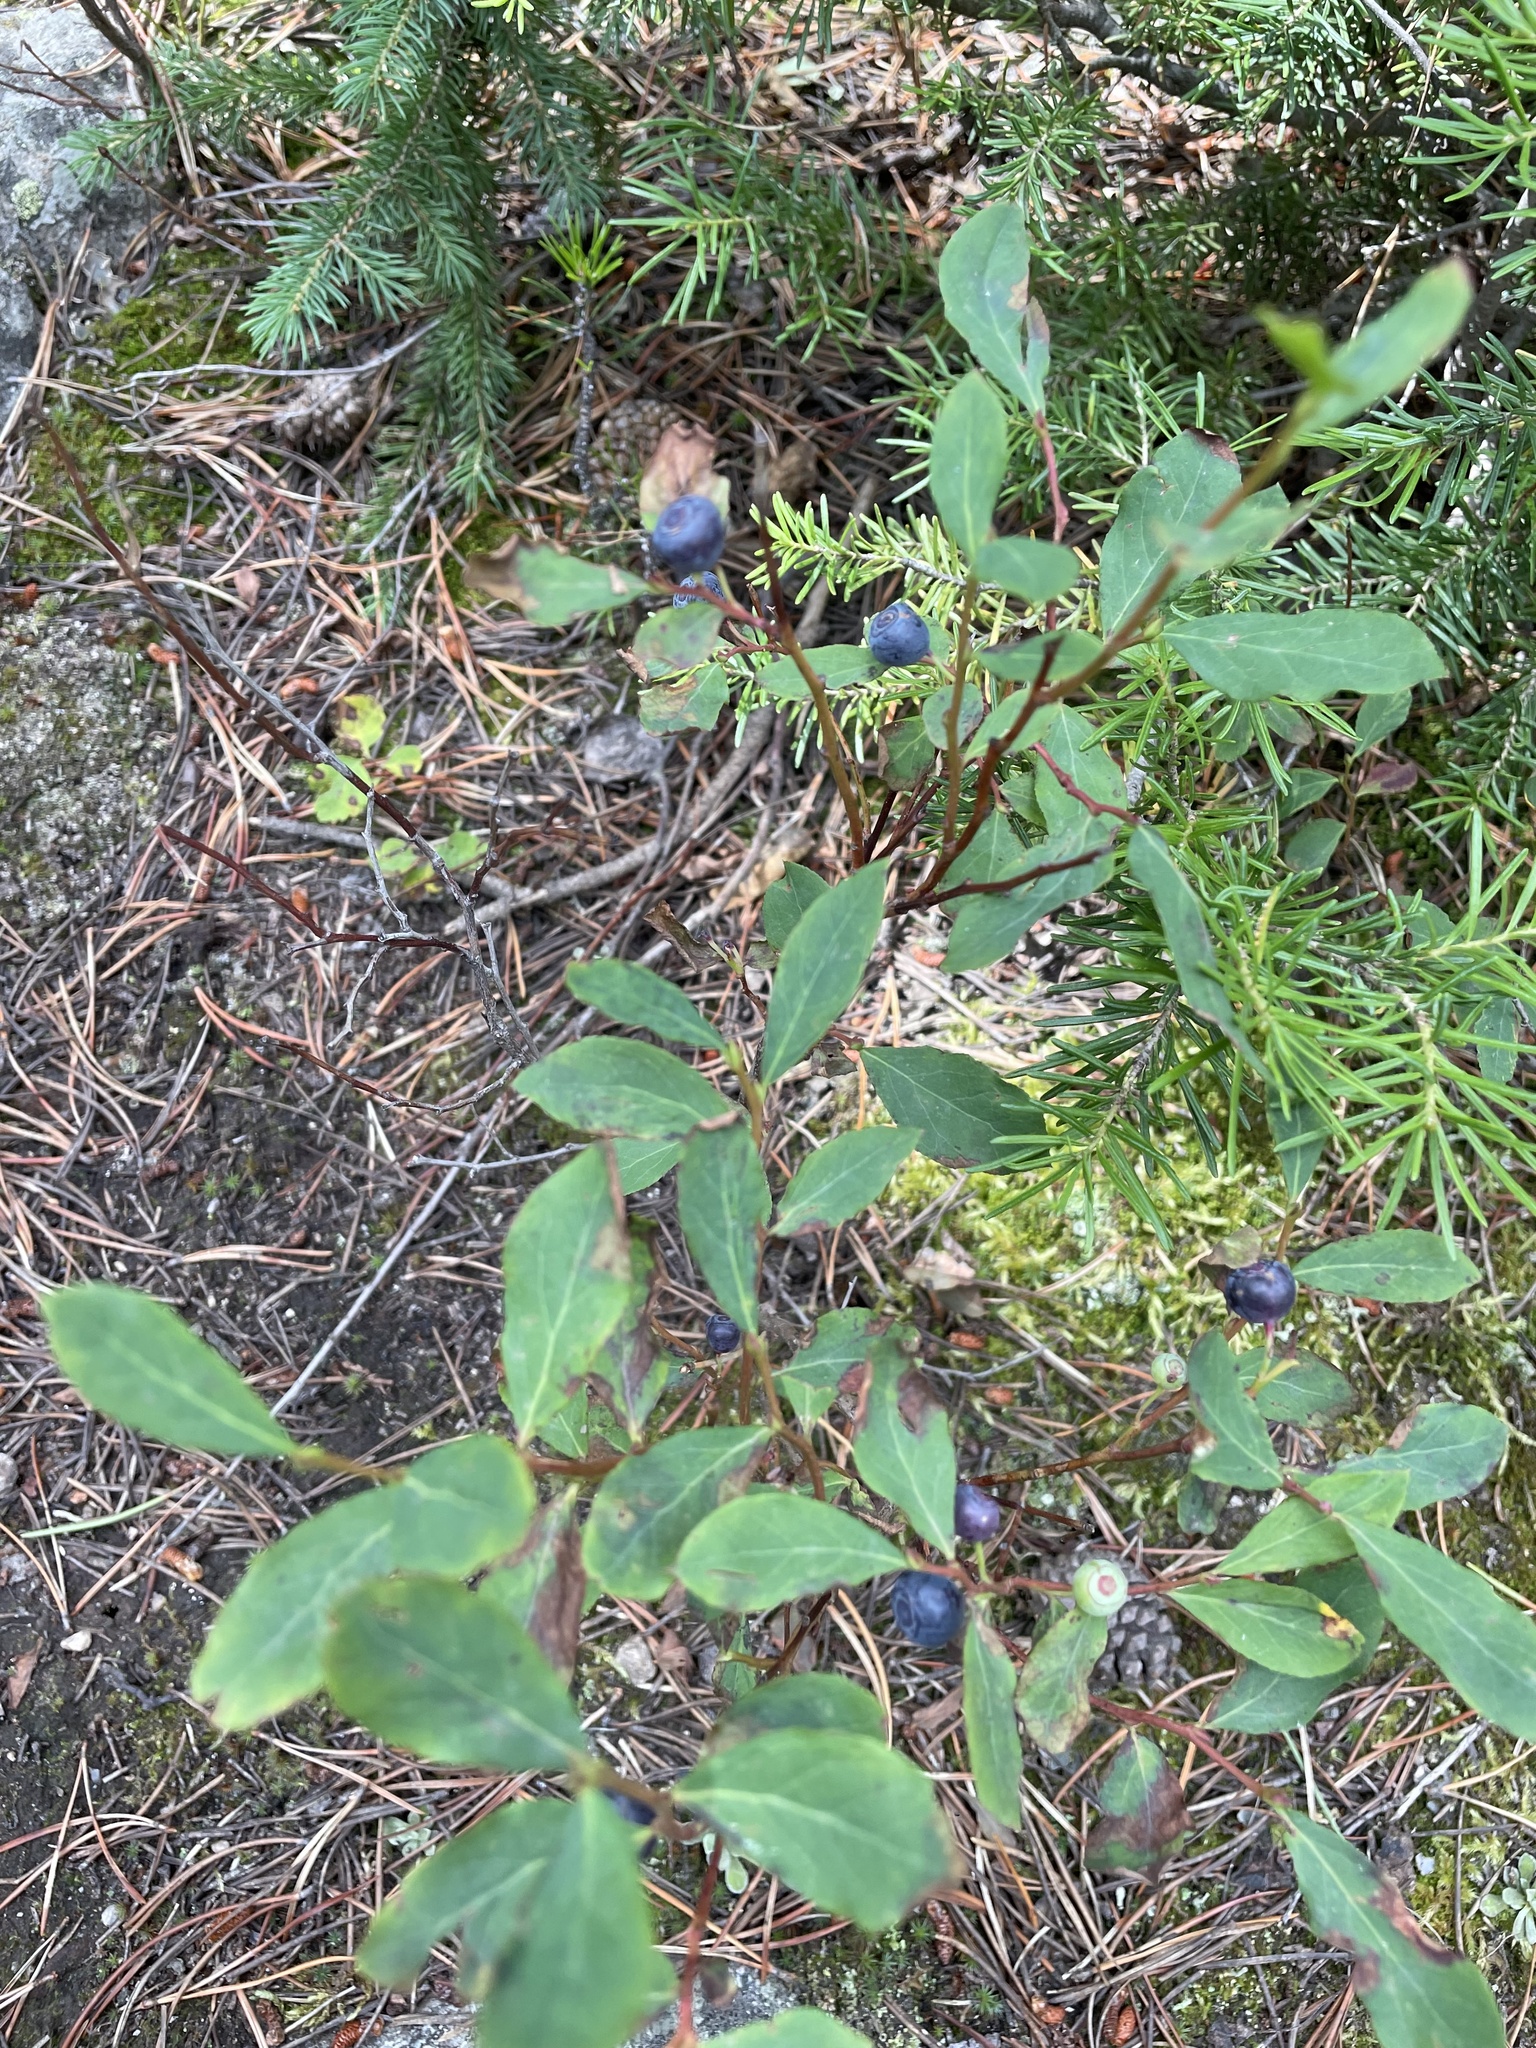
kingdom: Plantae
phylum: Tracheophyta
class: Magnoliopsida
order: Ericales
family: Ericaceae
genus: Vaccinium
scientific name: Vaccinium membranaceum
